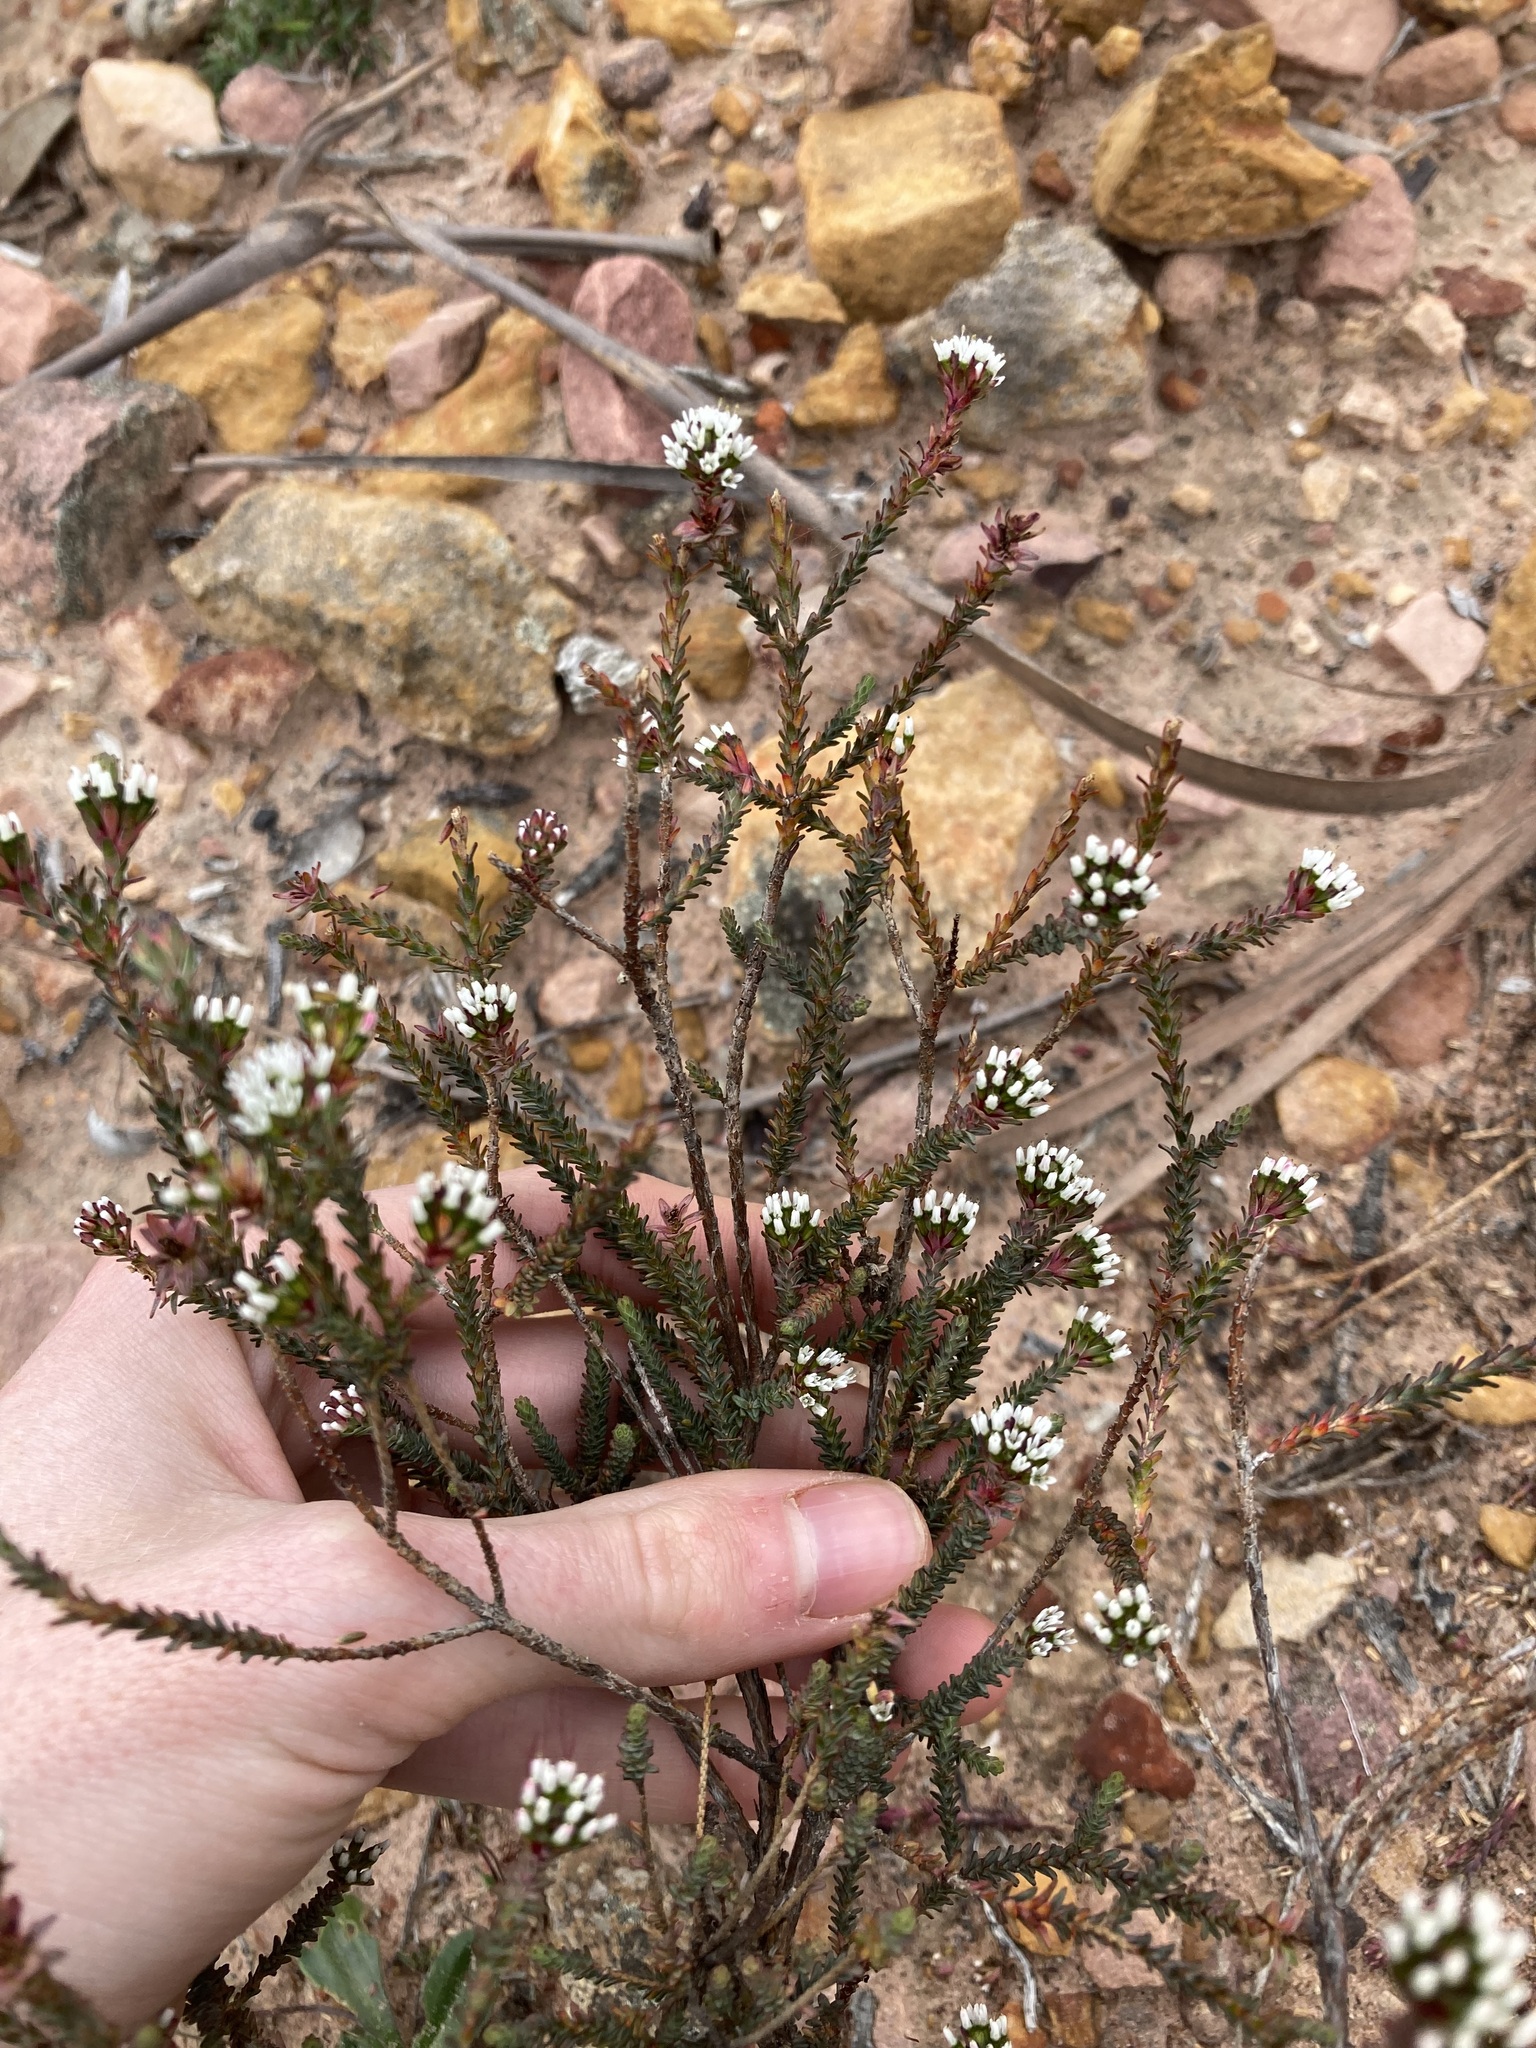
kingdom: Plantae
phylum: Tracheophyta
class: Magnoliopsida
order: Myrtales
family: Myrtaceae
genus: Darwinia
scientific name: Darwinia vestita
